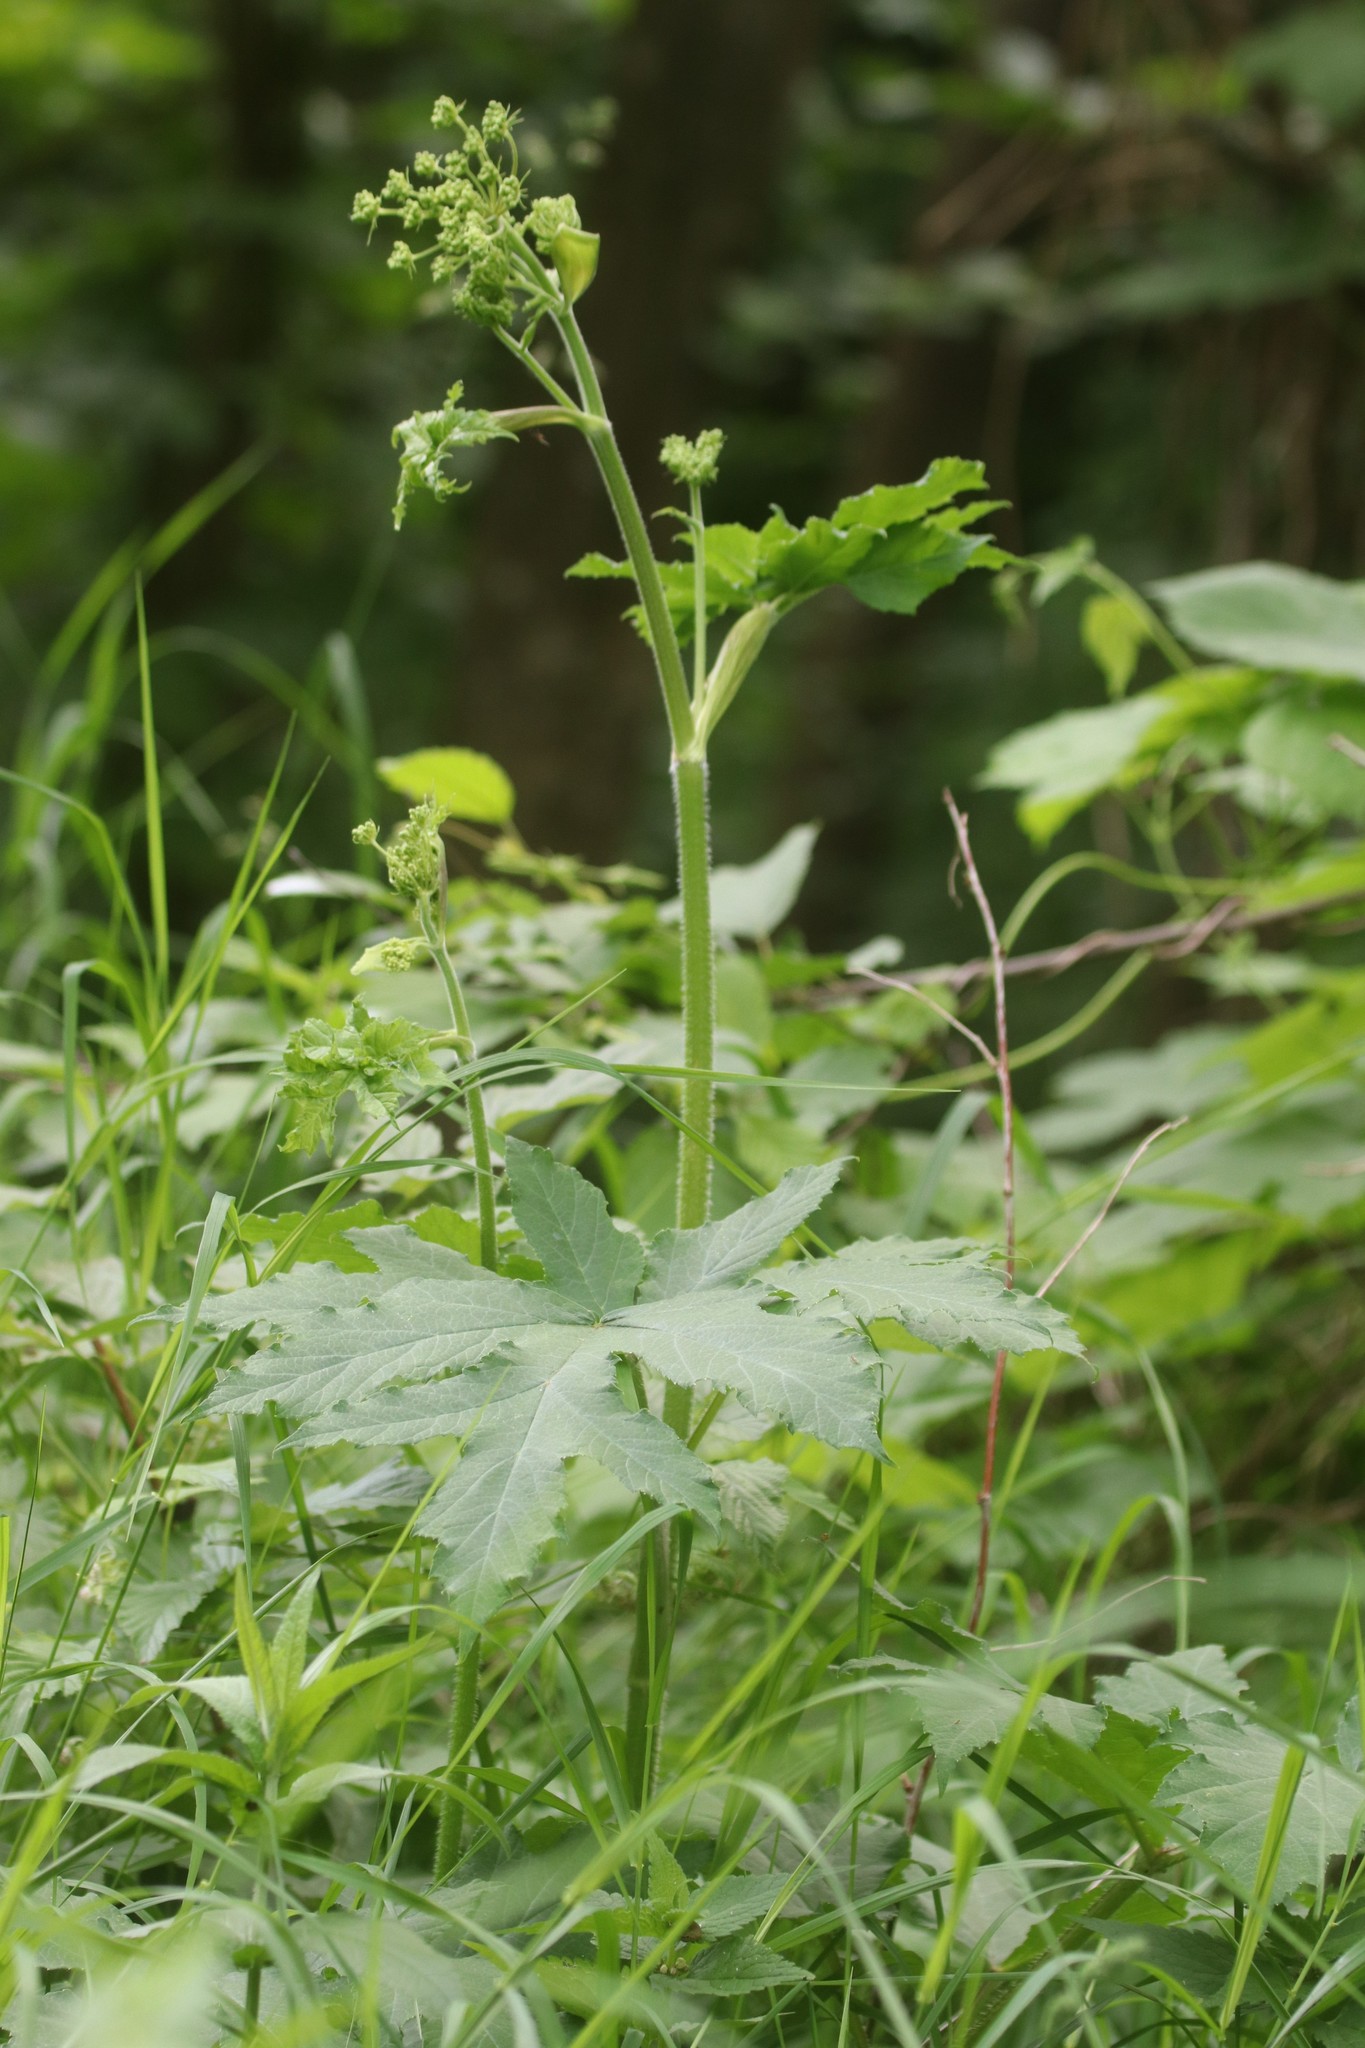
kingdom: Plantae
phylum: Tracheophyta
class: Magnoliopsida
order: Apiales
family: Apiaceae
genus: Heracleum
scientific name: Heracleum sphondylium
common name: Hogweed
